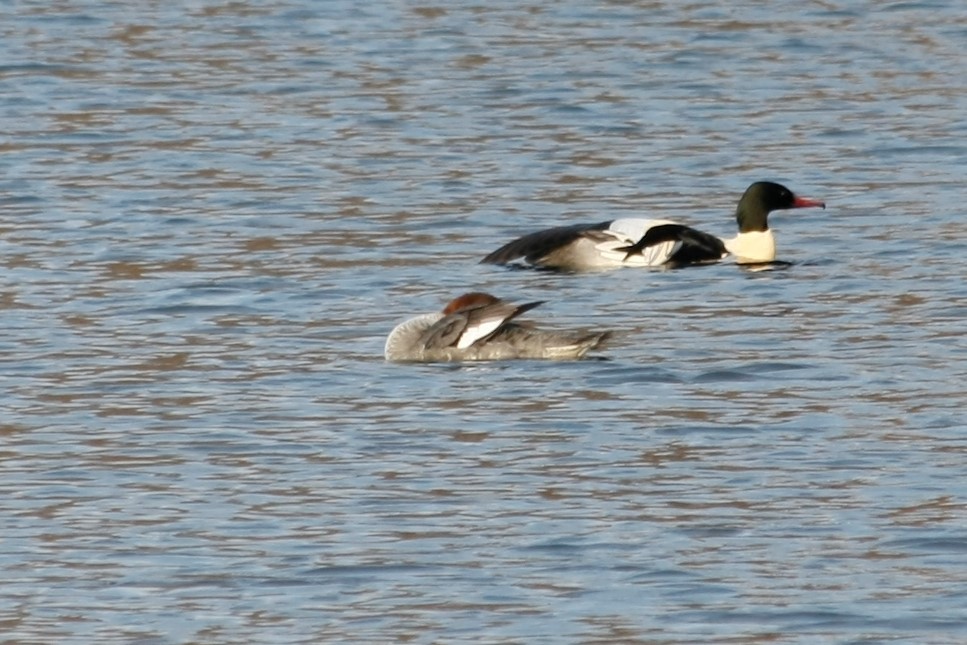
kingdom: Animalia
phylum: Chordata
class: Aves
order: Anseriformes
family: Anatidae
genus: Mergus
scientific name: Mergus merganser
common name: Common merganser
